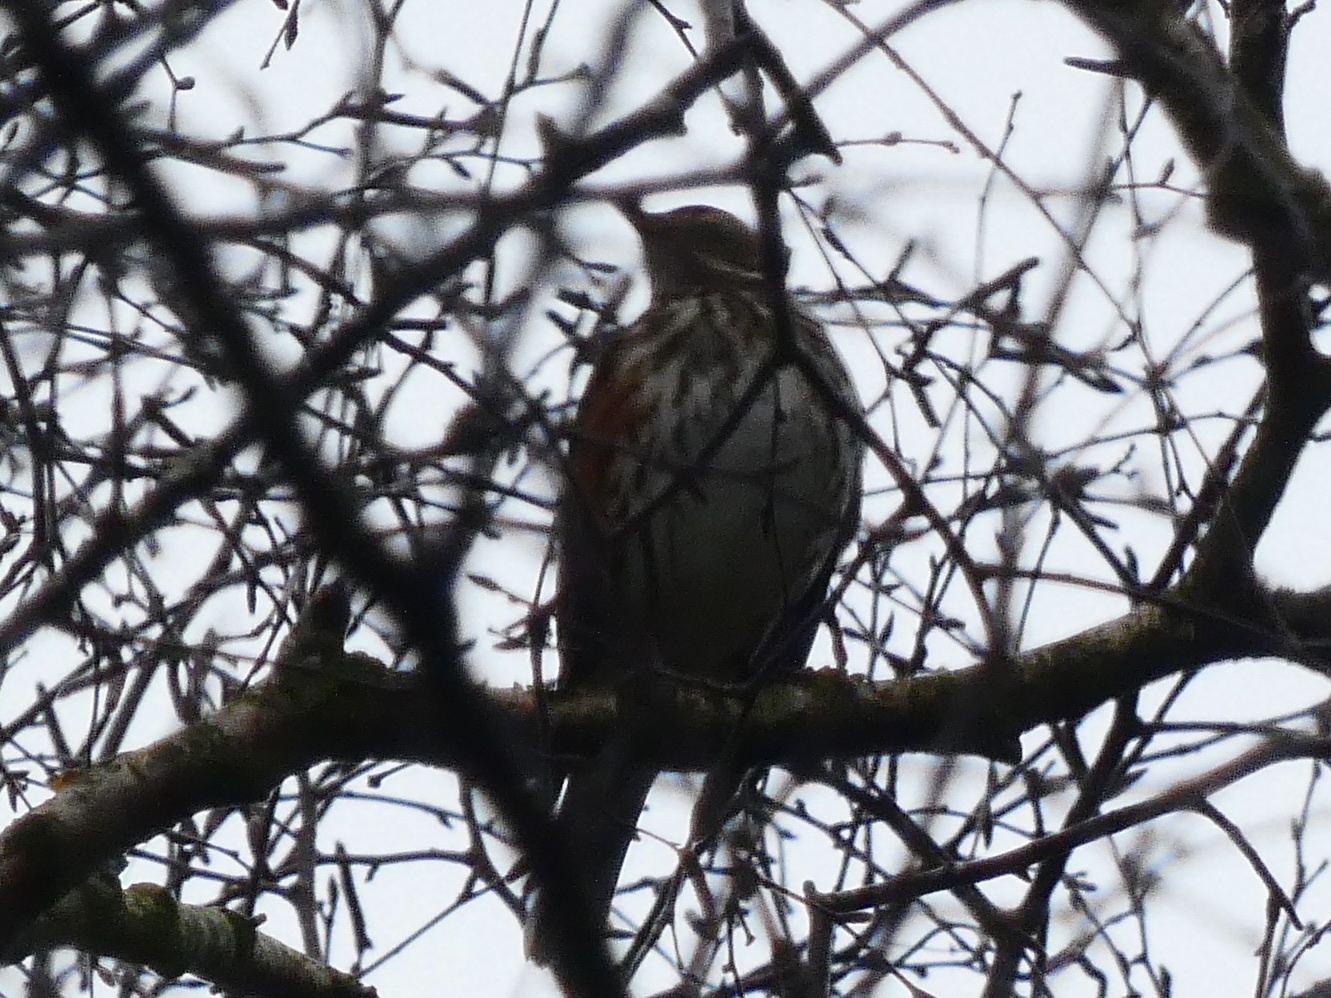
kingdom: Animalia
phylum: Chordata
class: Aves
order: Passeriformes
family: Turdidae
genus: Turdus
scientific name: Turdus iliacus
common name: Redwing
